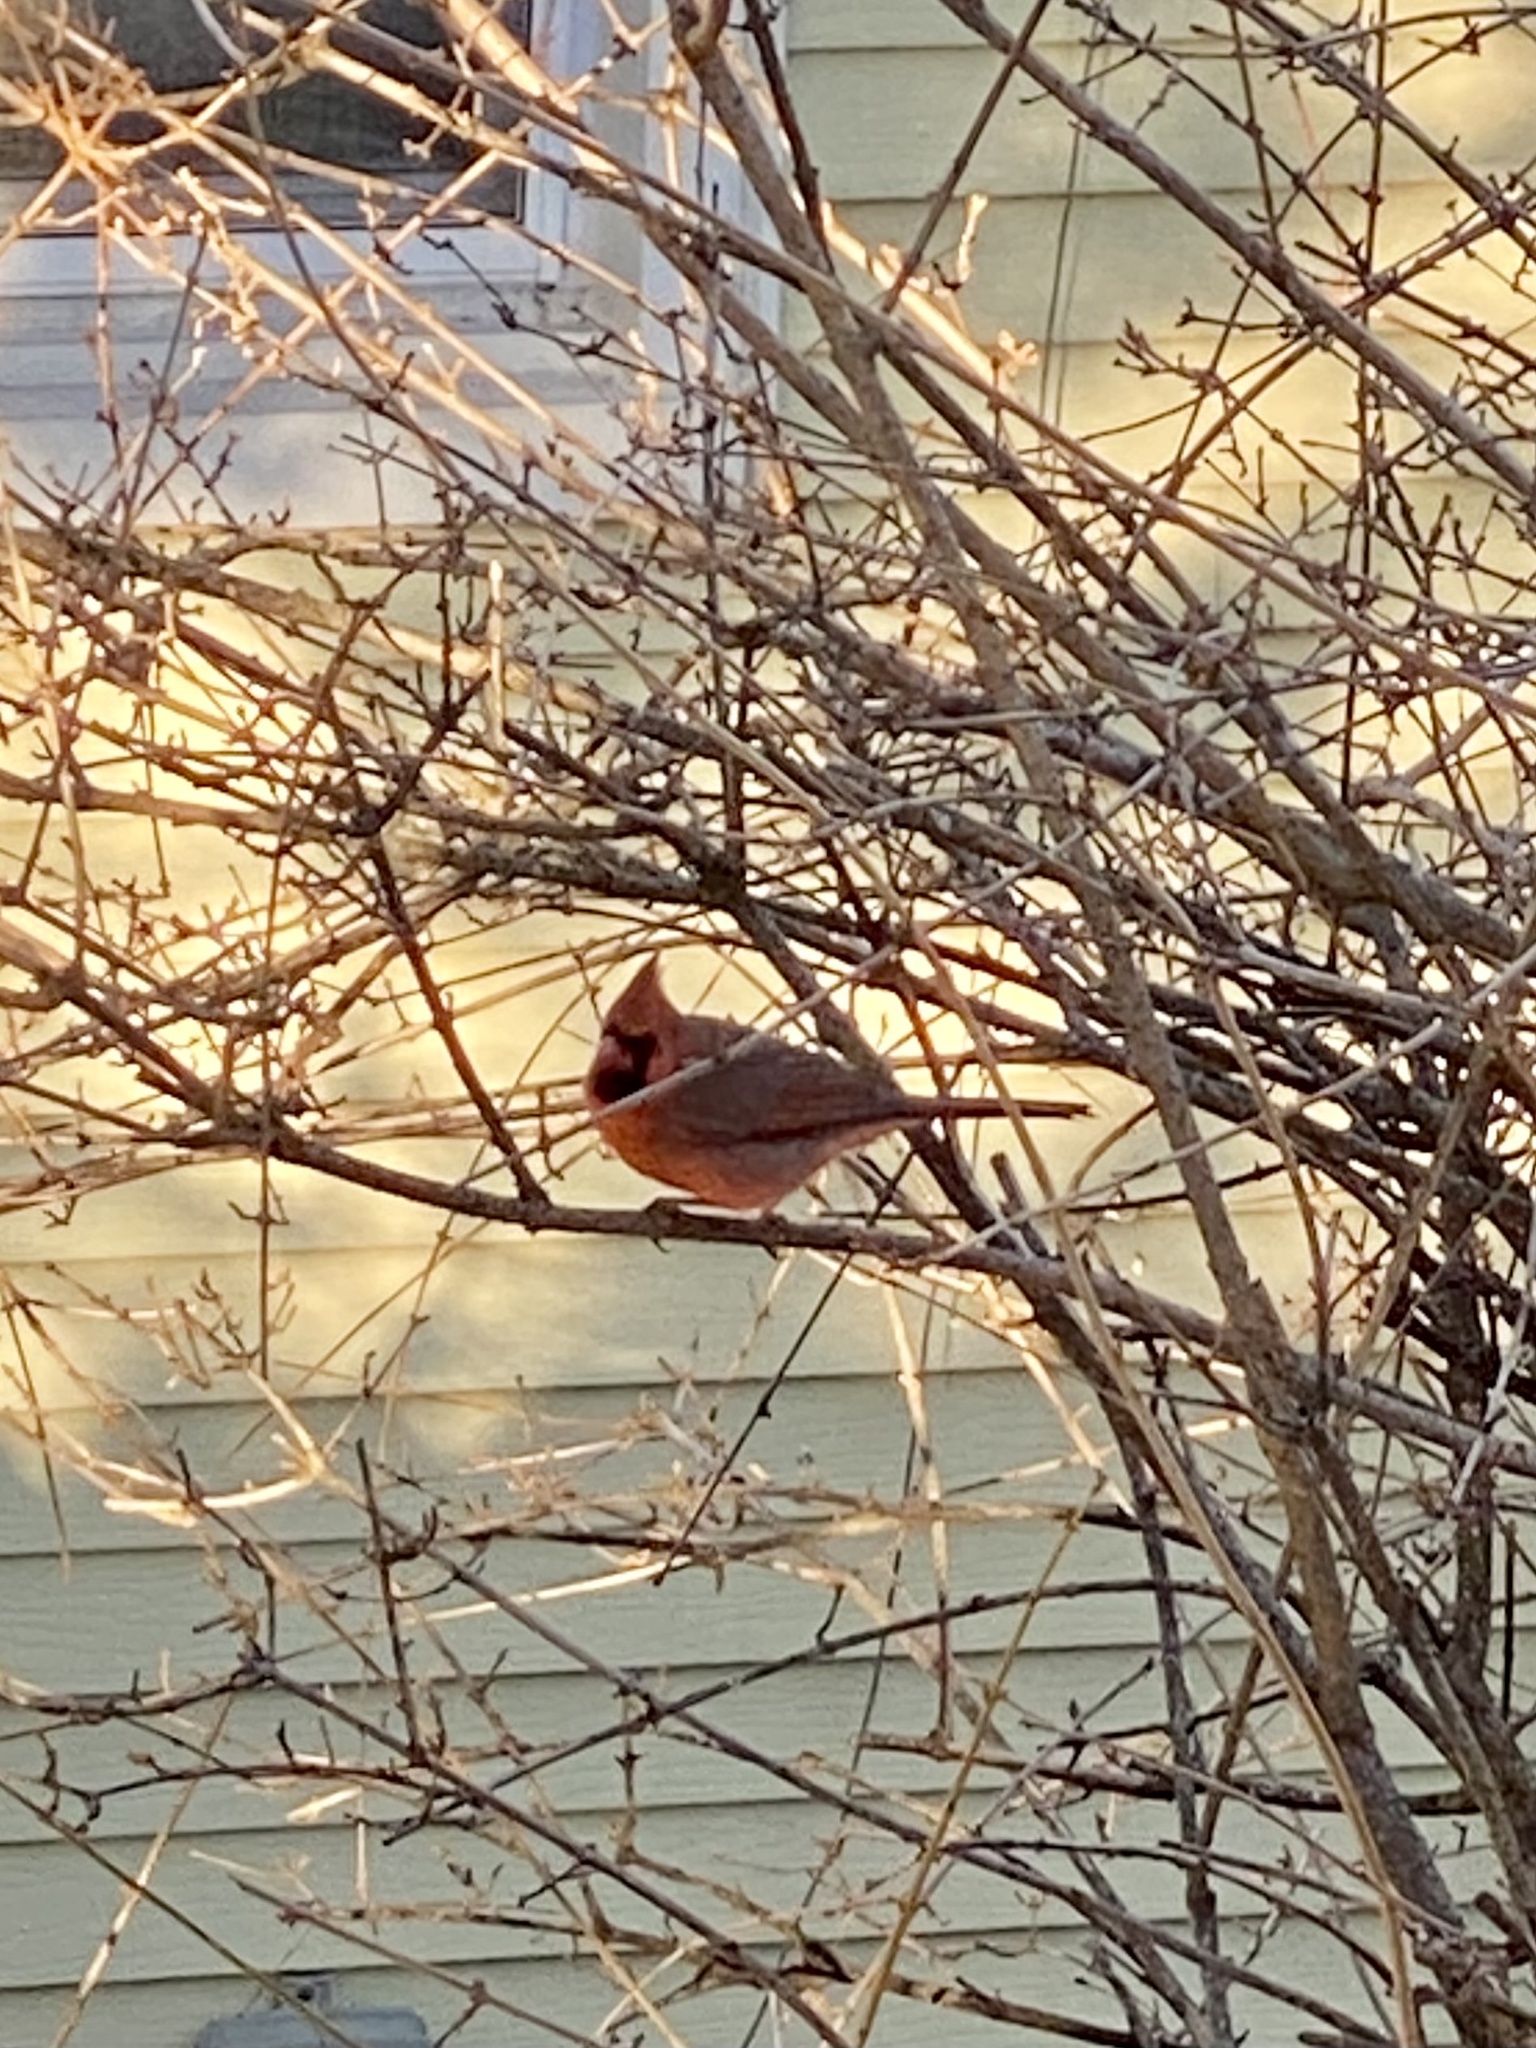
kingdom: Animalia
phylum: Chordata
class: Aves
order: Passeriformes
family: Cardinalidae
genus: Cardinalis
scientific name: Cardinalis cardinalis
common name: Northern cardinal
